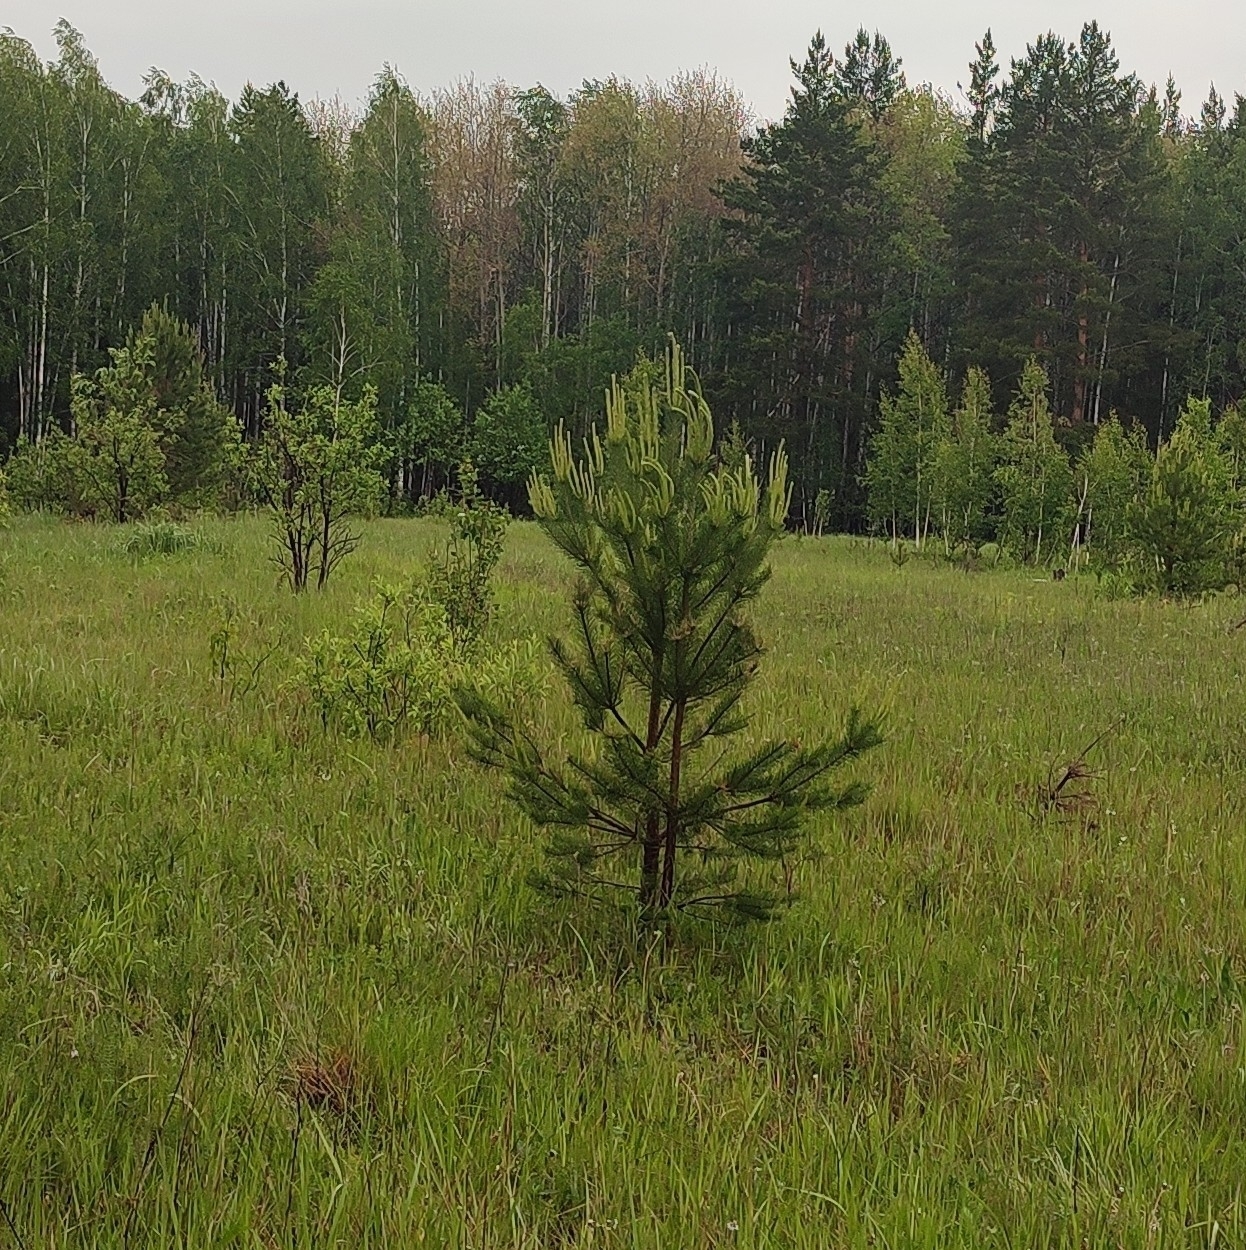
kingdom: Plantae
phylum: Tracheophyta
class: Pinopsida
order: Pinales
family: Pinaceae
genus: Pinus
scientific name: Pinus sylvestris
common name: Scots pine
